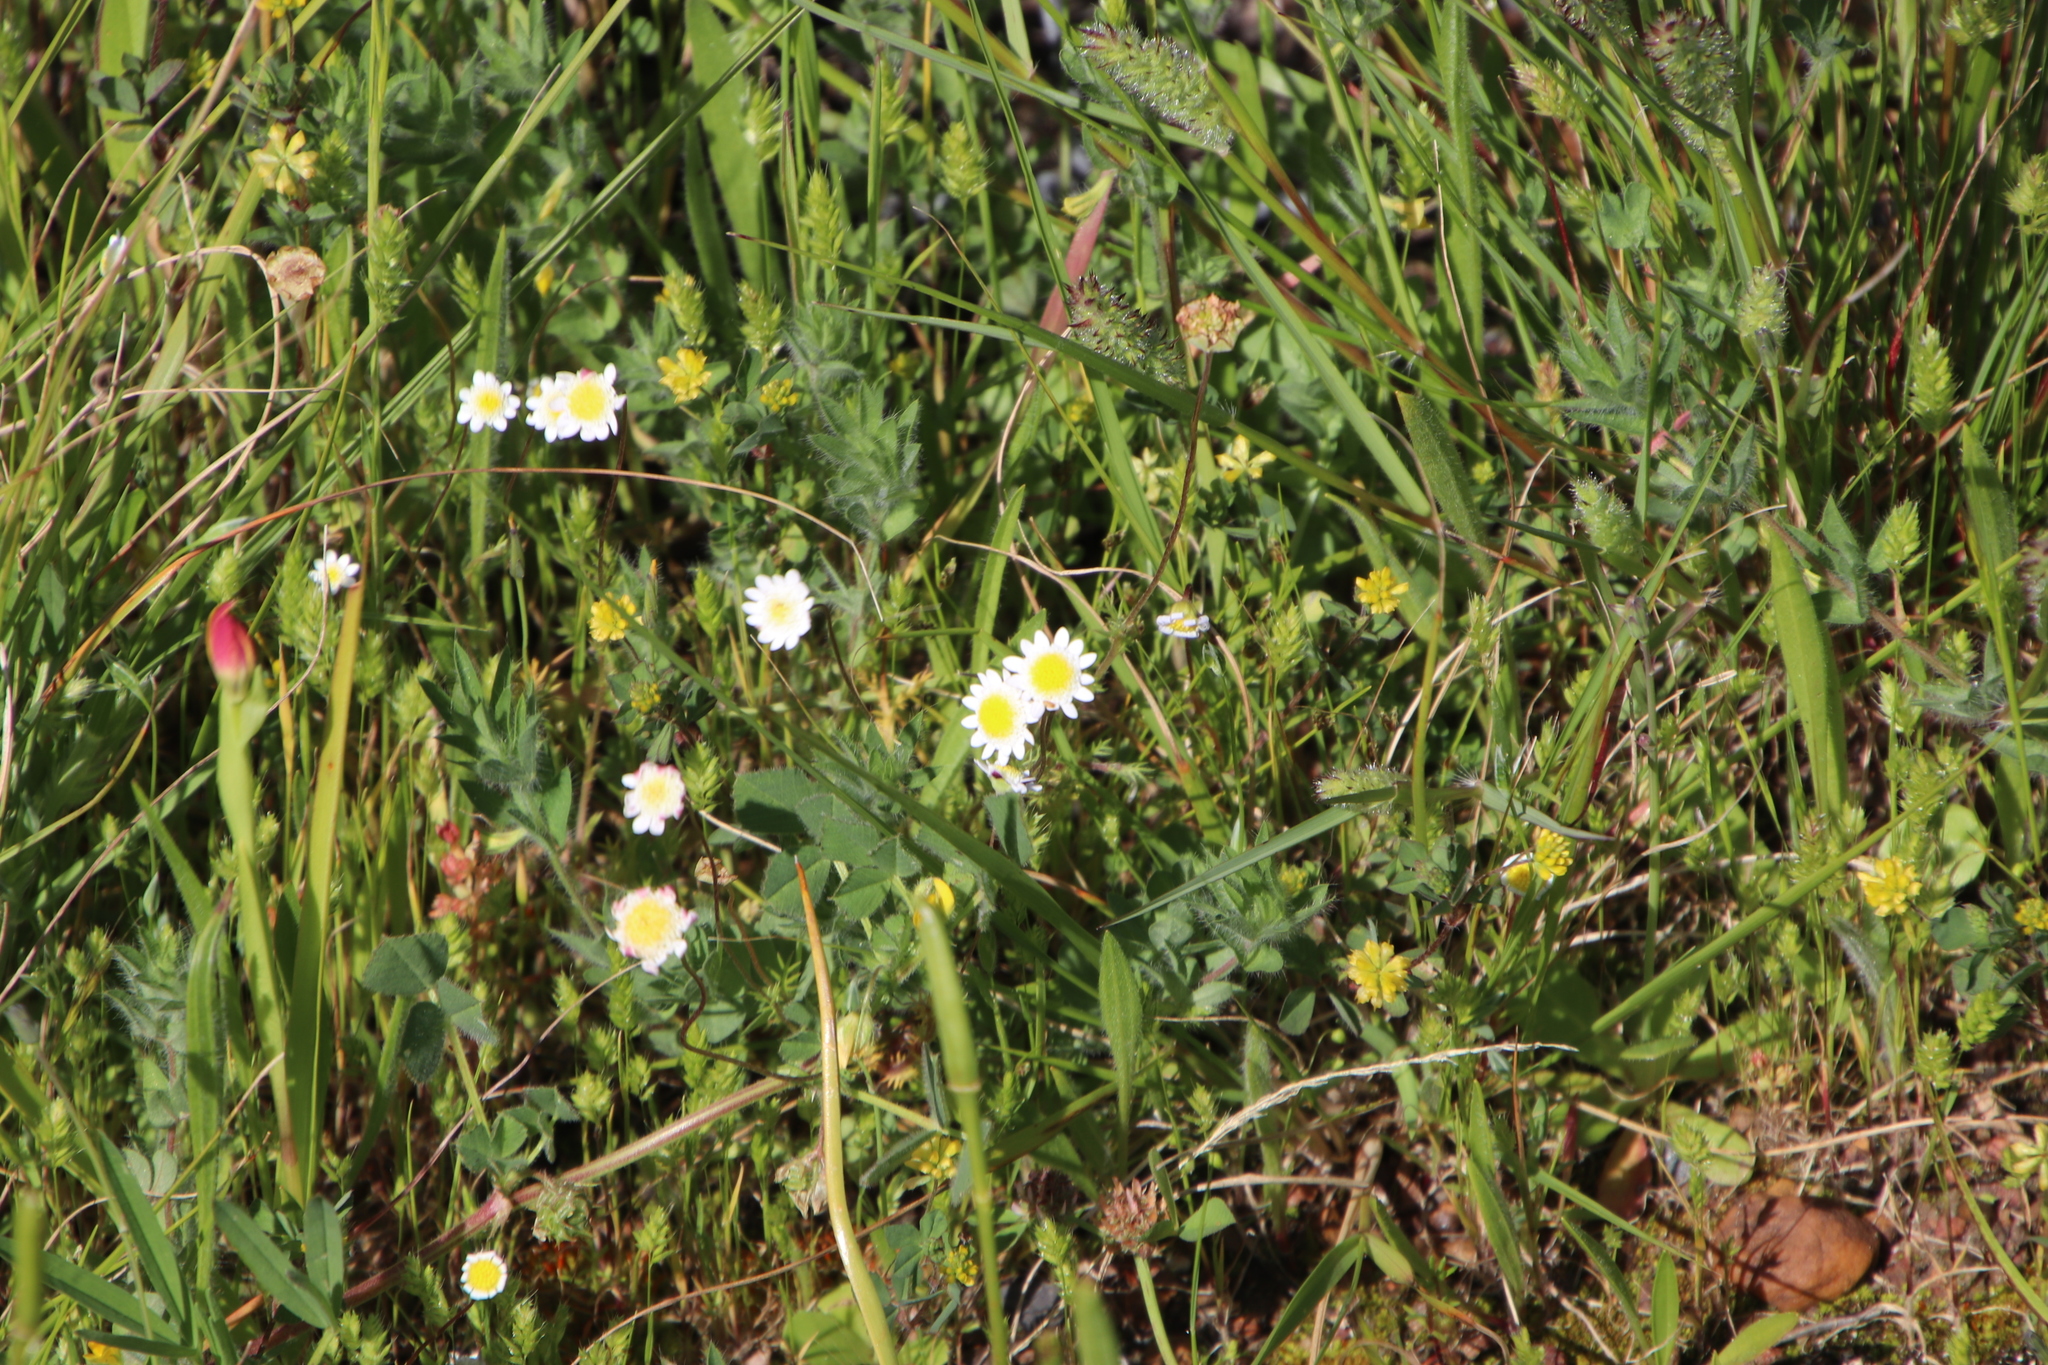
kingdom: Plantae
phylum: Tracheophyta
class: Magnoliopsida
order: Asterales
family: Asteraceae
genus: Cotula
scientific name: Cotula turbinata
